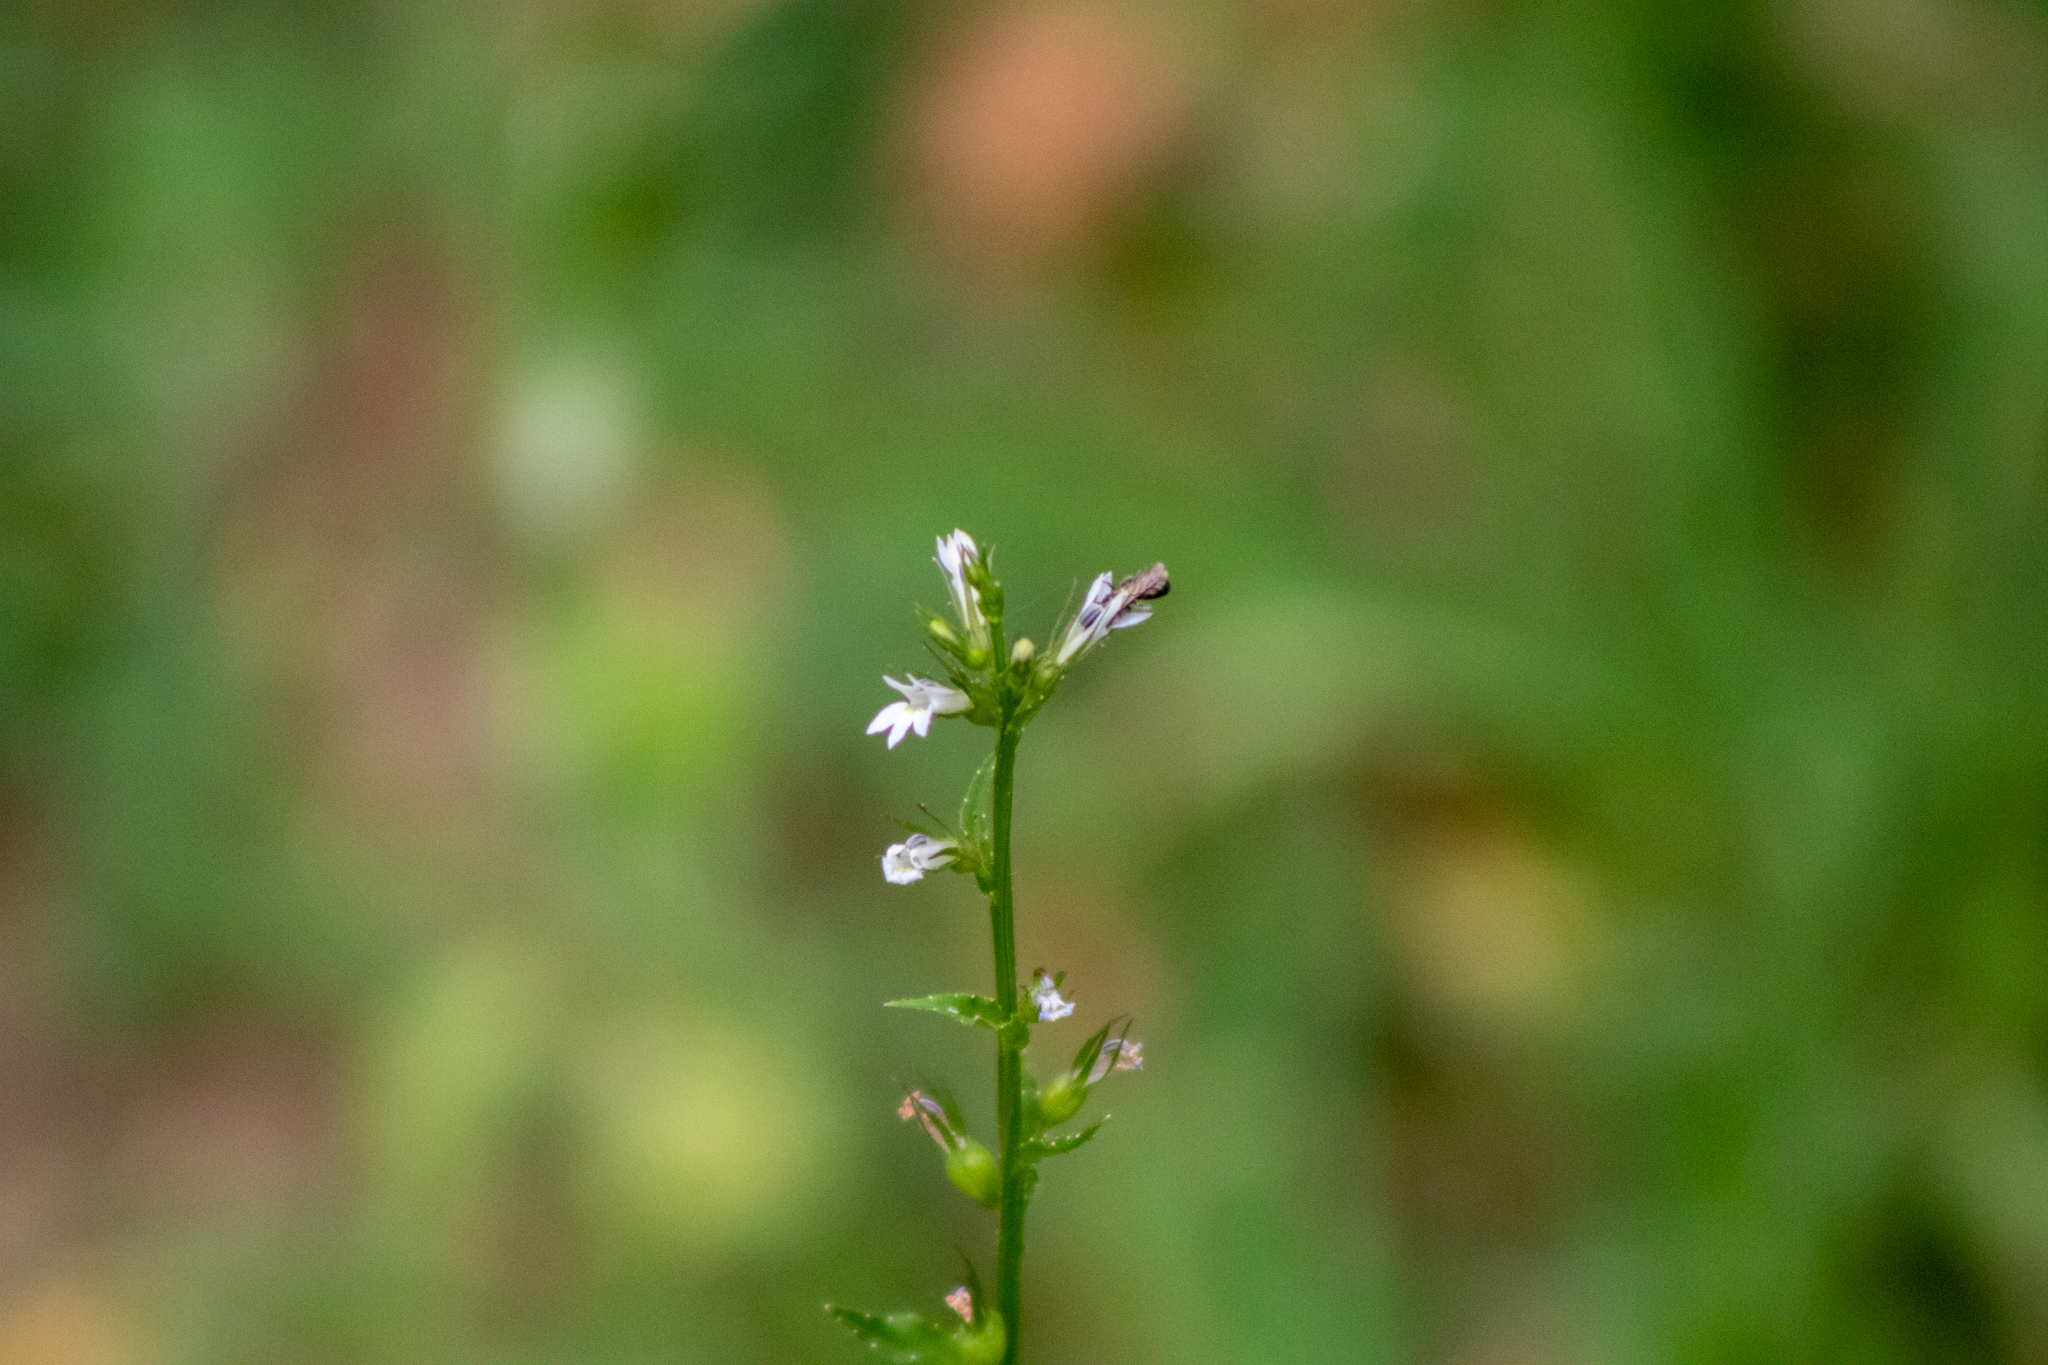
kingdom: Plantae
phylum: Tracheophyta
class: Magnoliopsida
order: Asterales
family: Campanulaceae
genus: Lobelia
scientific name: Lobelia inflata
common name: Indian tobacco
